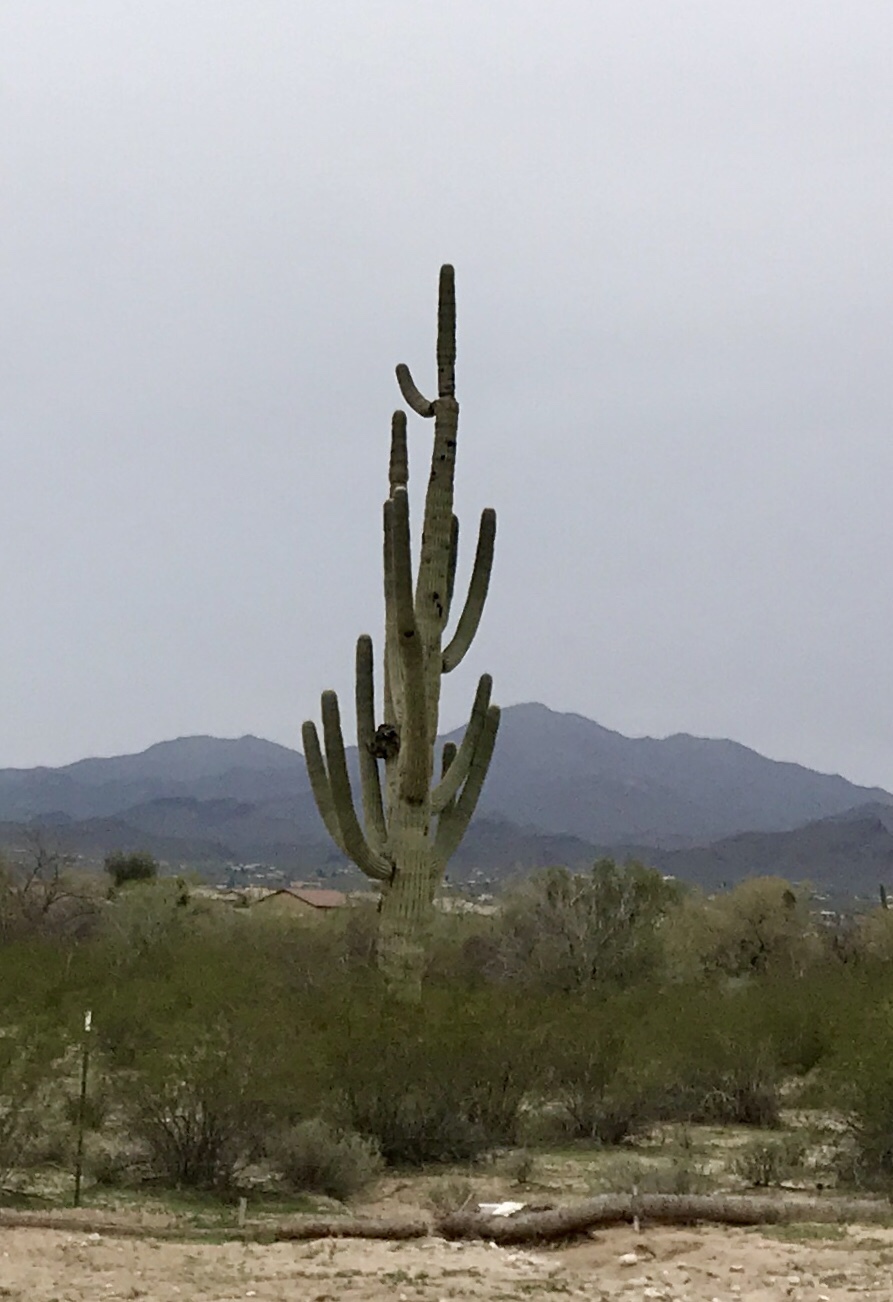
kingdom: Plantae
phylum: Tracheophyta
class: Magnoliopsida
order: Caryophyllales
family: Cactaceae
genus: Carnegiea
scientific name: Carnegiea gigantea
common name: Saguaro
